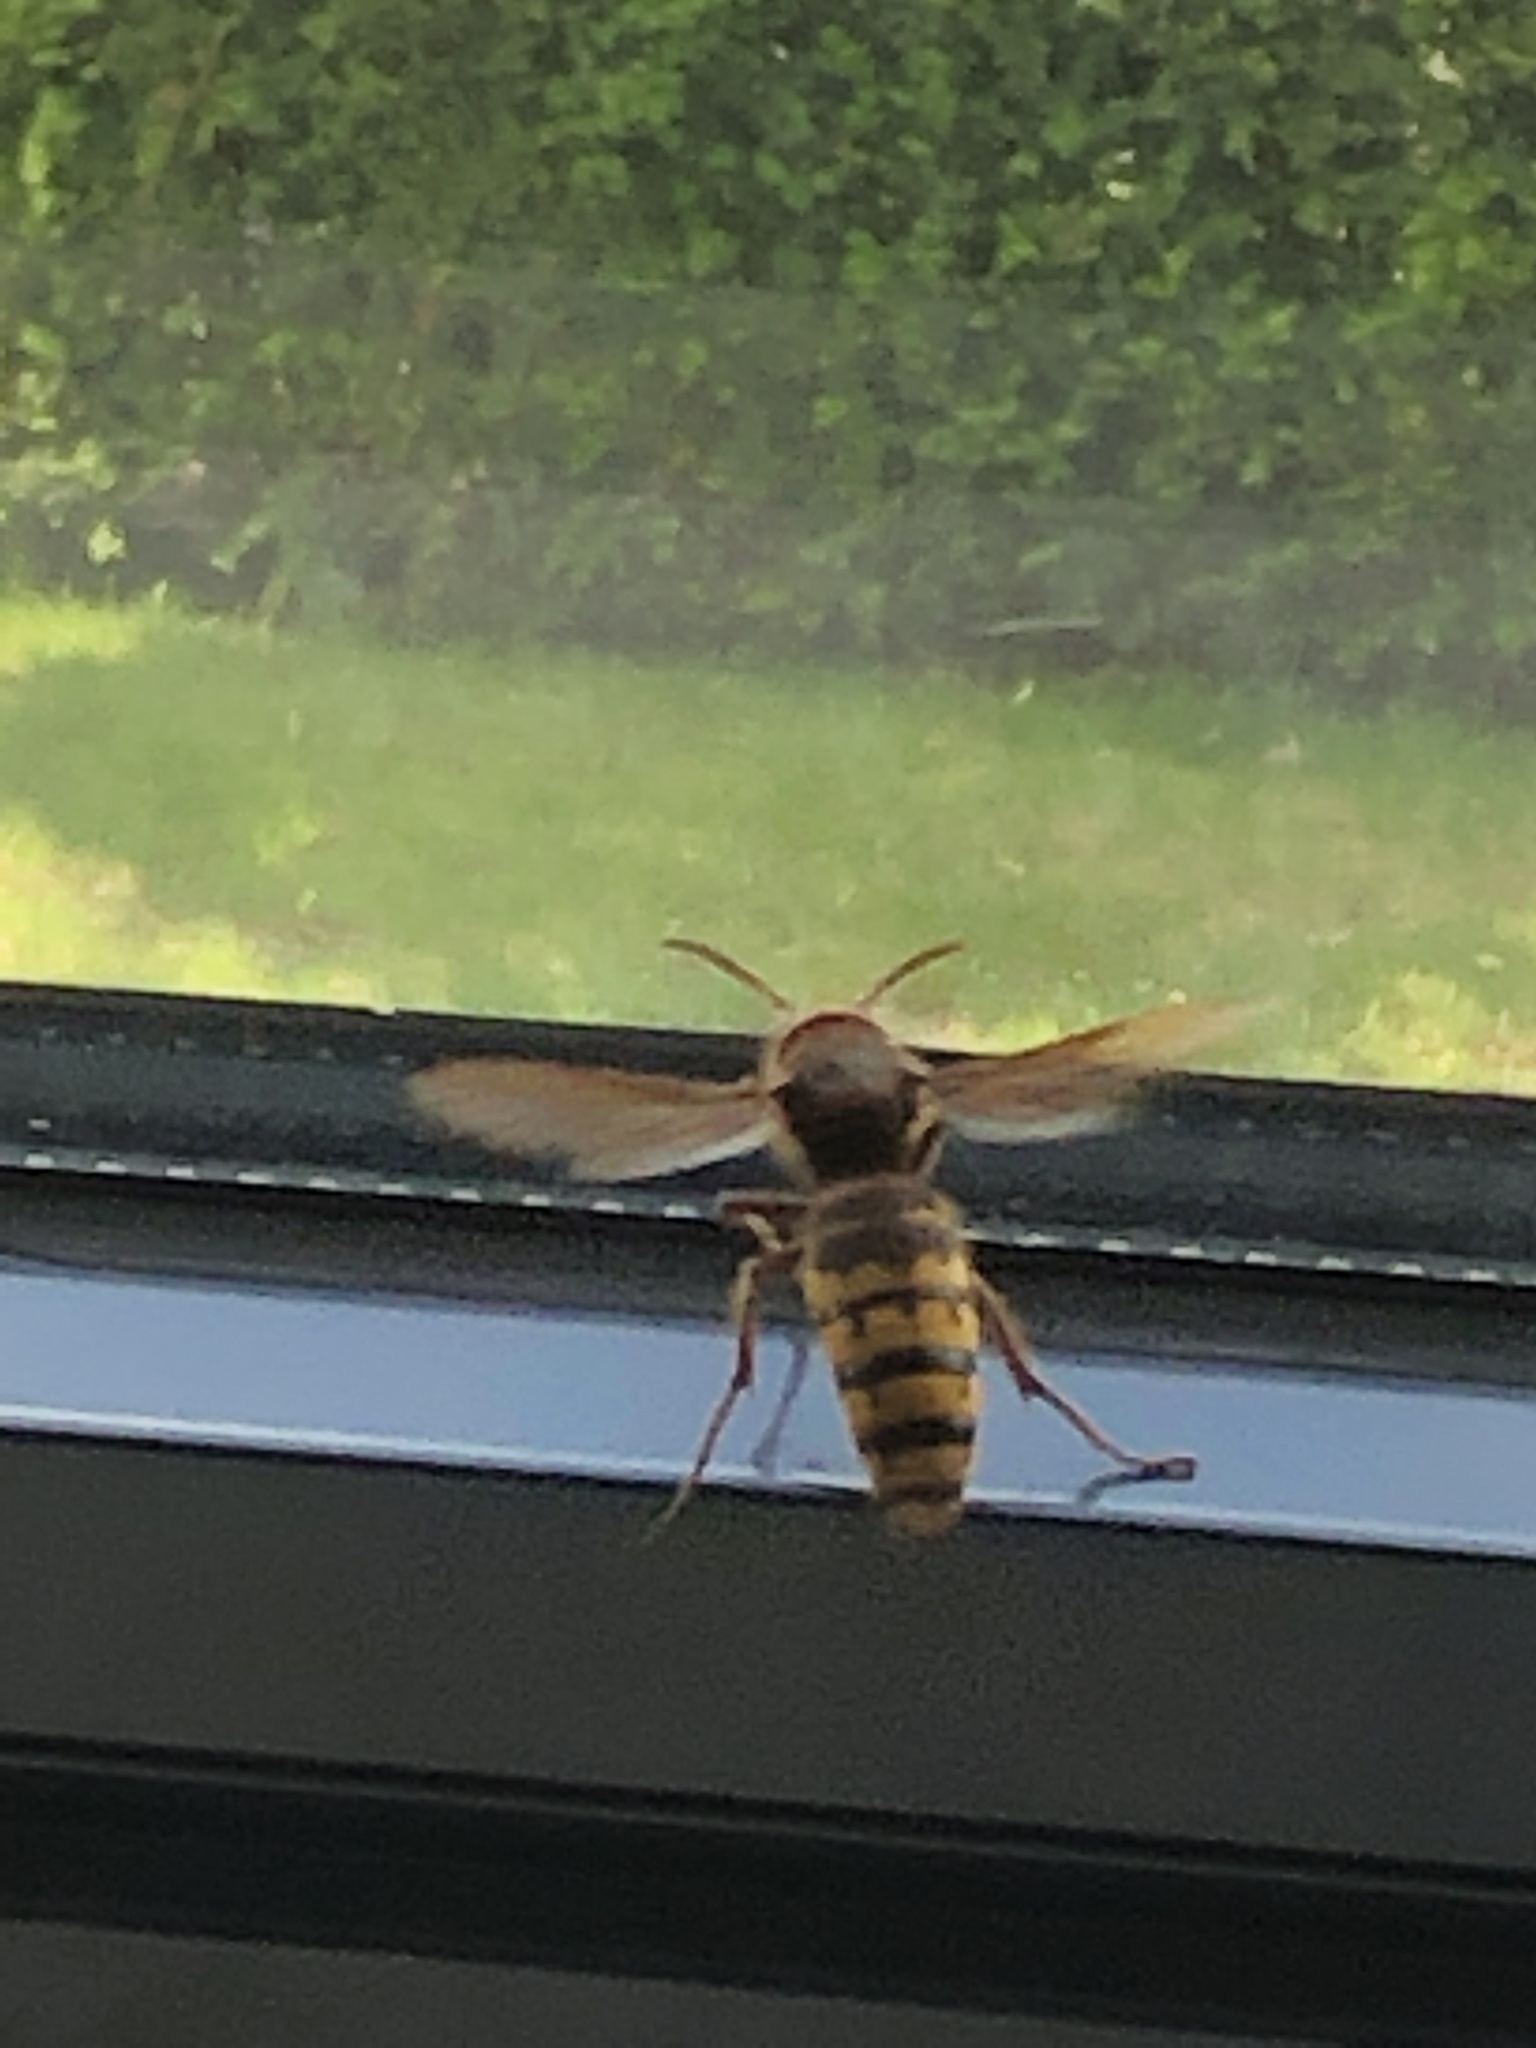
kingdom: Animalia
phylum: Arthropoda
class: Insecta
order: Hymenoptera
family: Vespidae
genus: Vespa
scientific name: Vespa crabro
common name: Hornet
